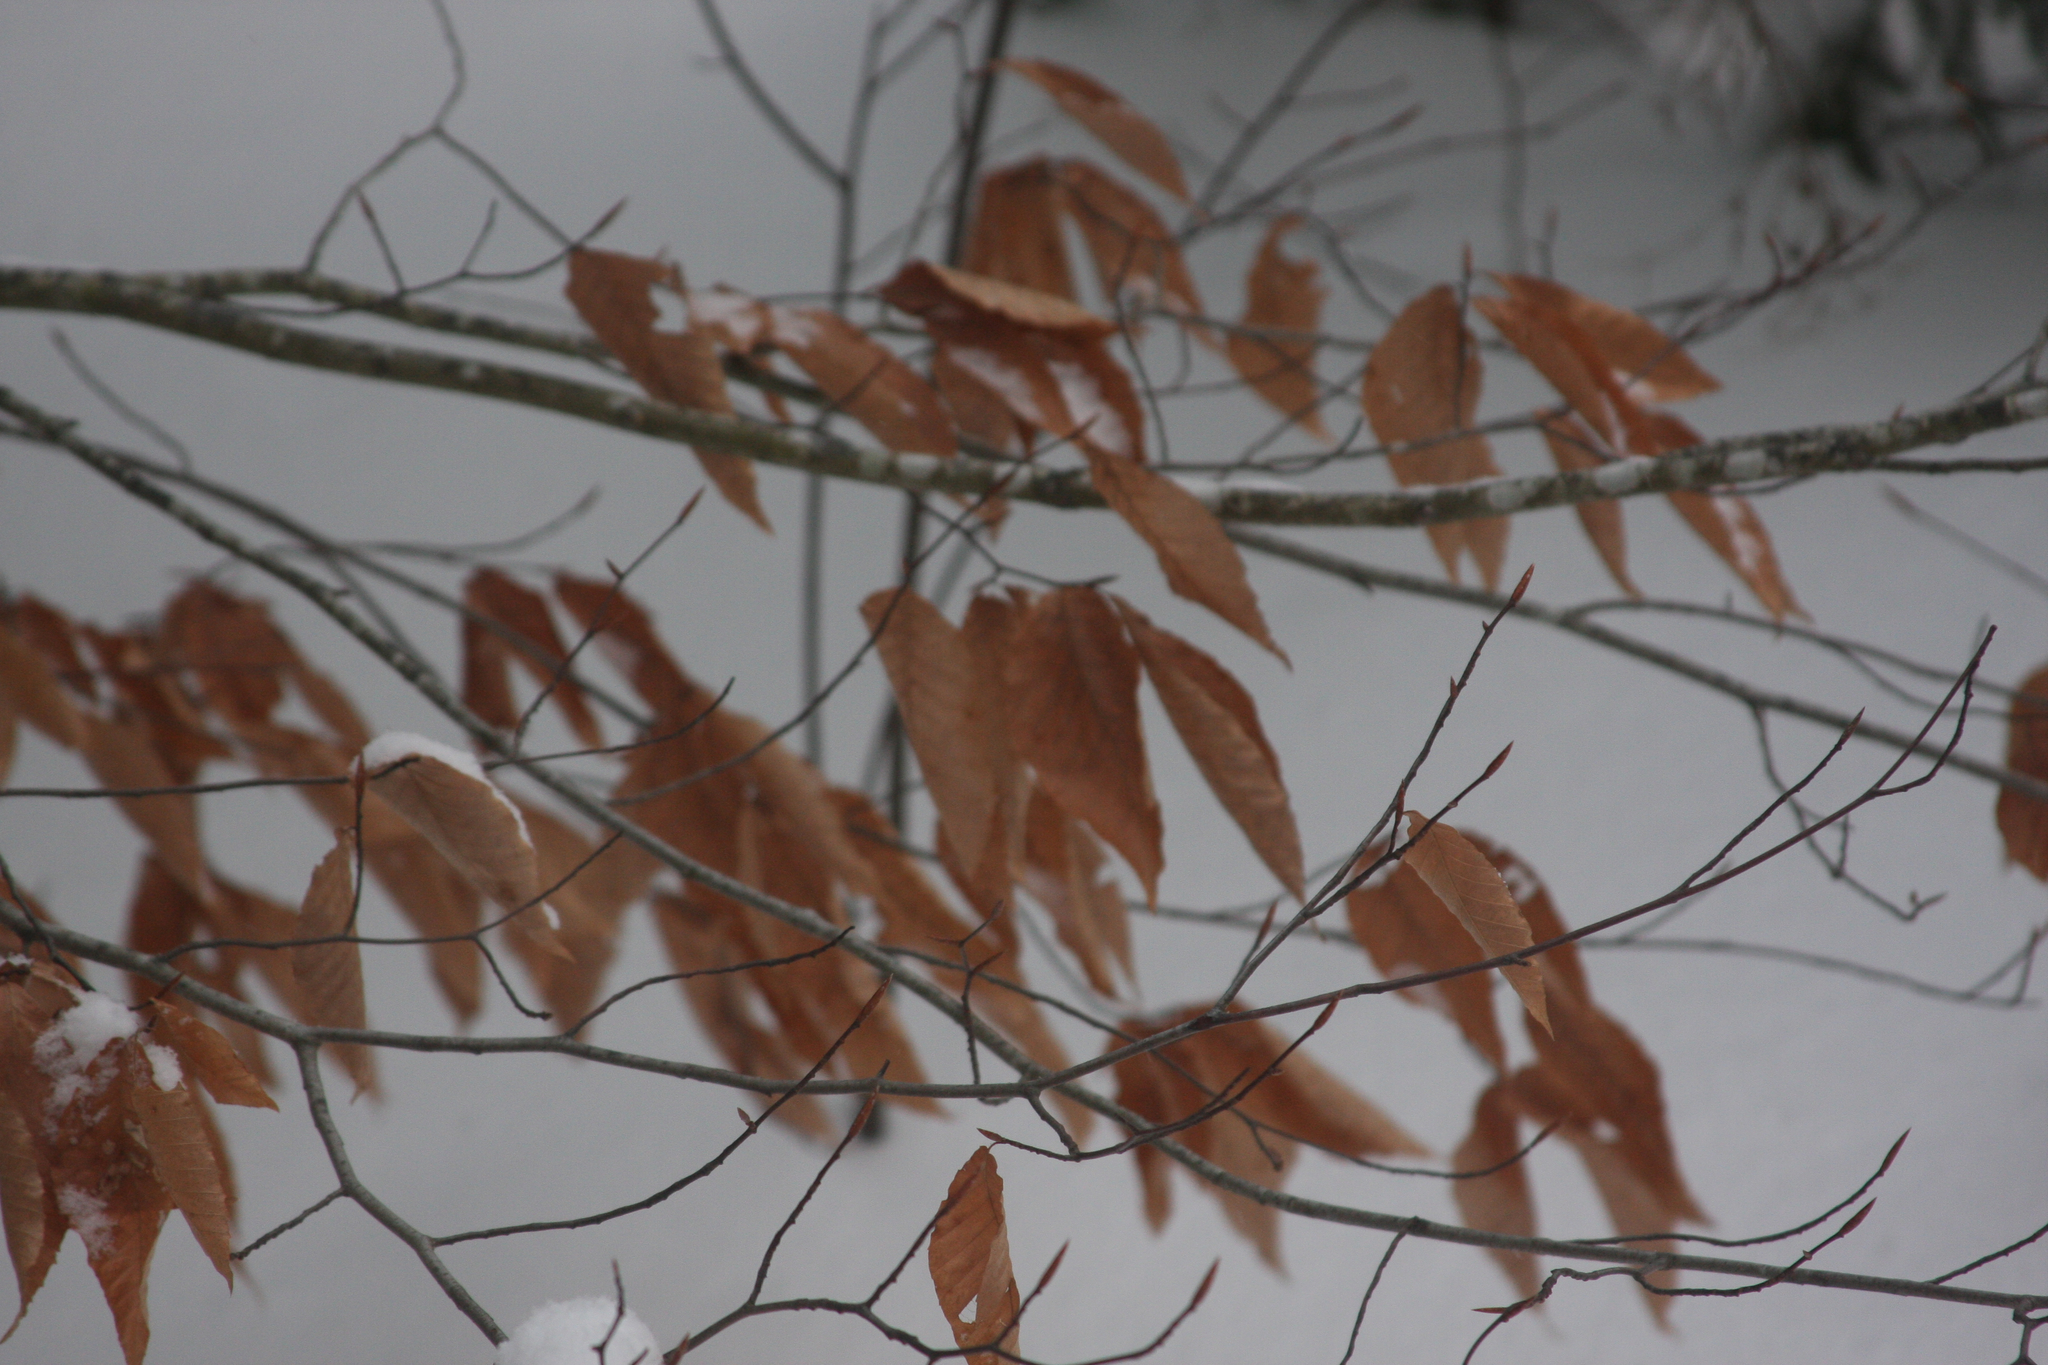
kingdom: Plantae
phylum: Tracheophyta
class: Magnoliopsida
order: Fagales
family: Fagaceae
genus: Fagus
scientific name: Fagus grandifolia
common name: American beech
